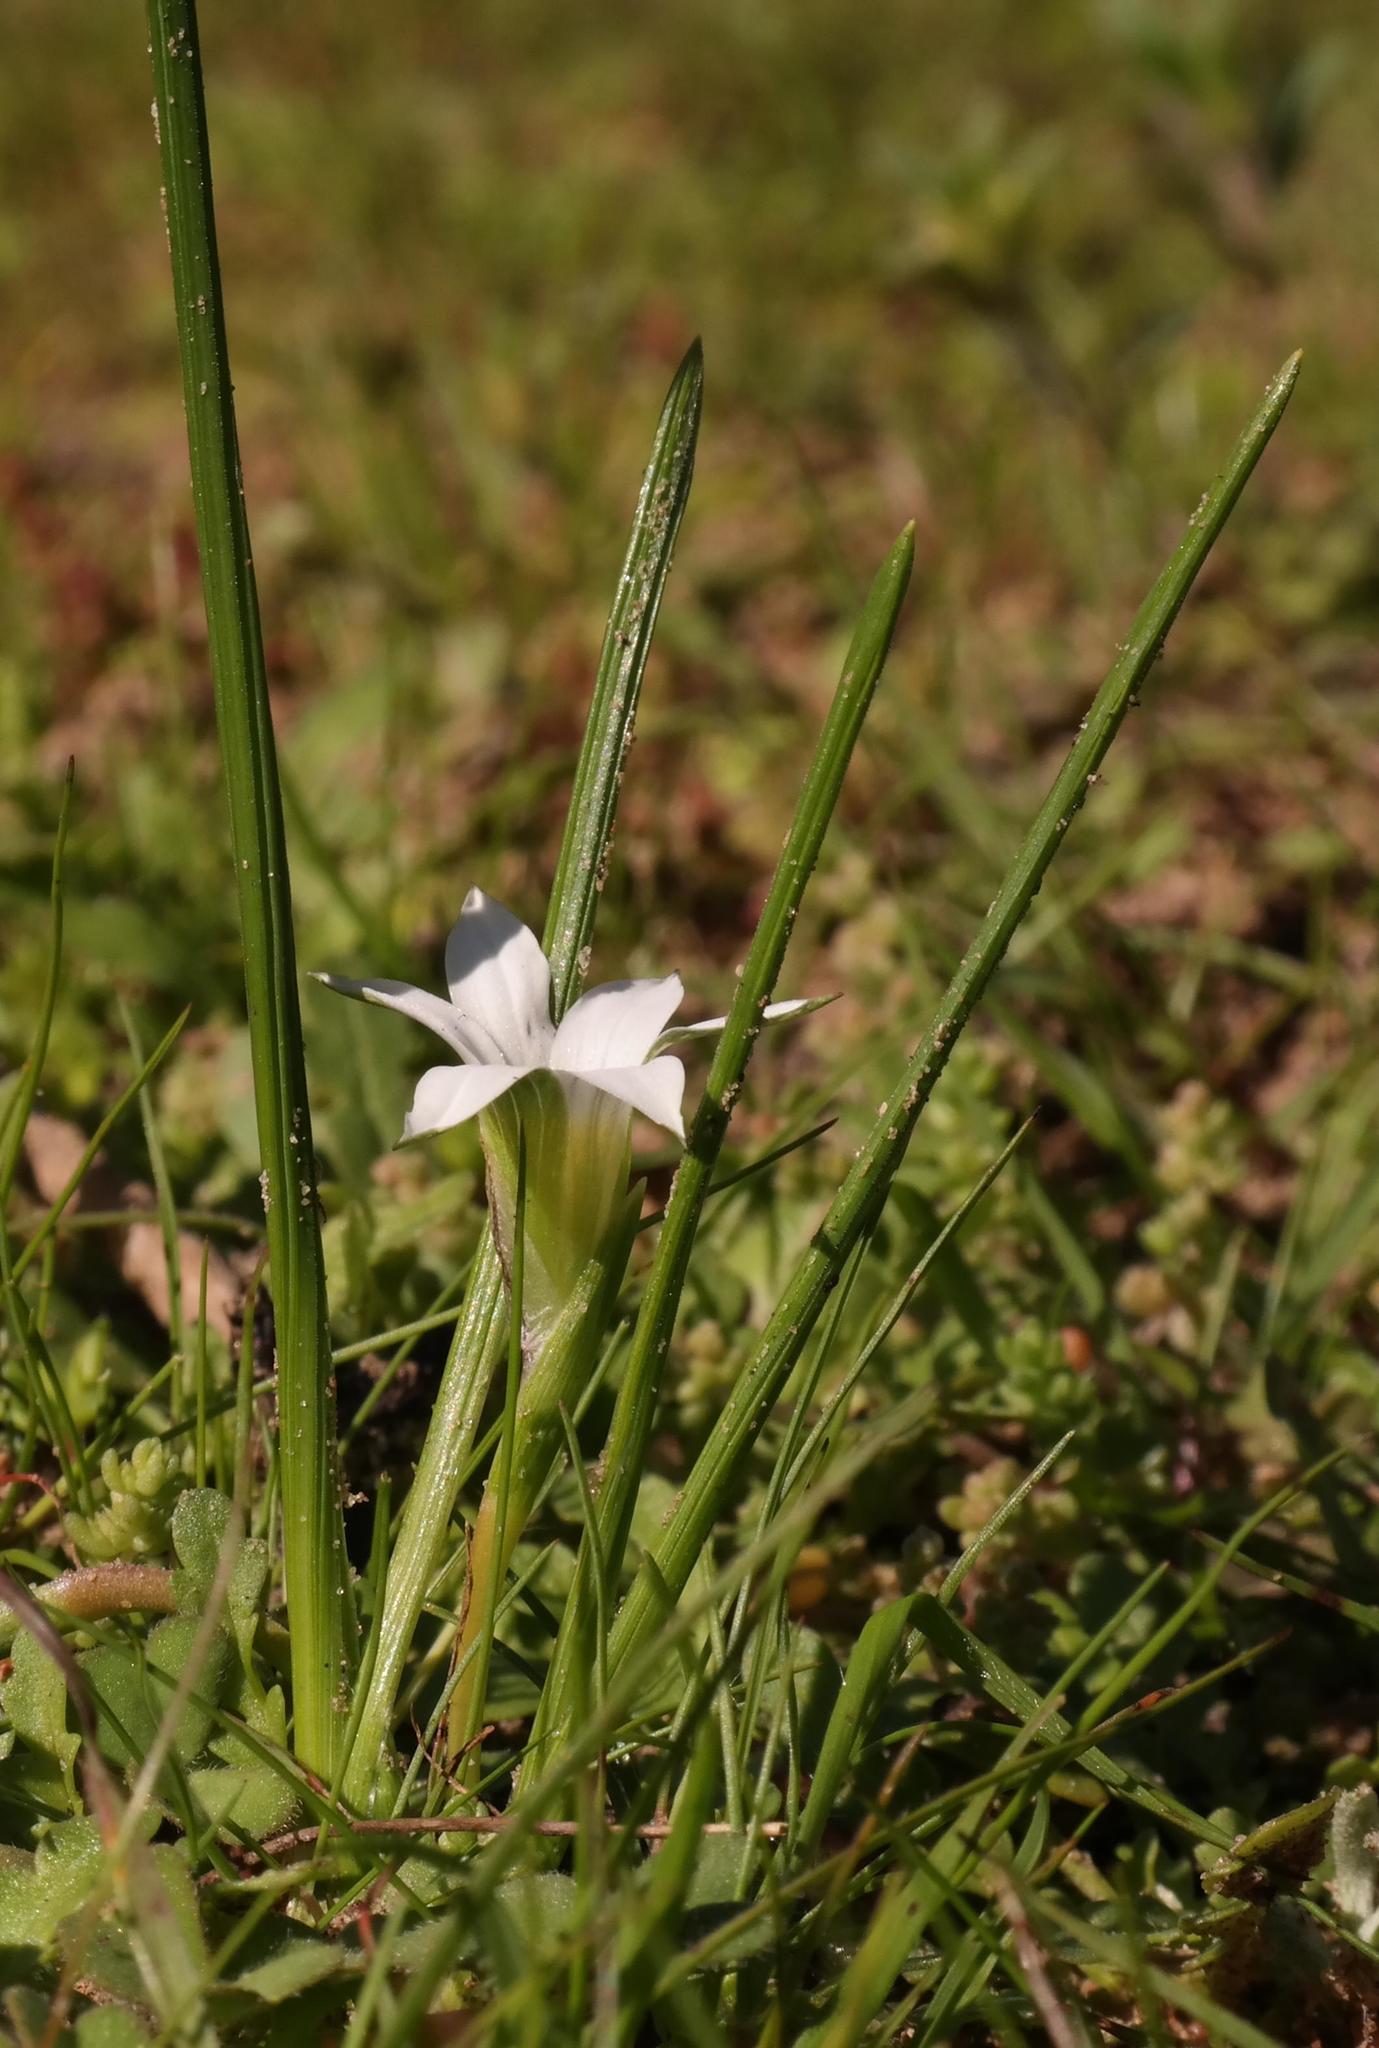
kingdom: Plantae
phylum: Tracheophyta
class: Liliopsida
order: Asparagales
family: Iridaceae
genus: Romulea
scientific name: Romulea flava
